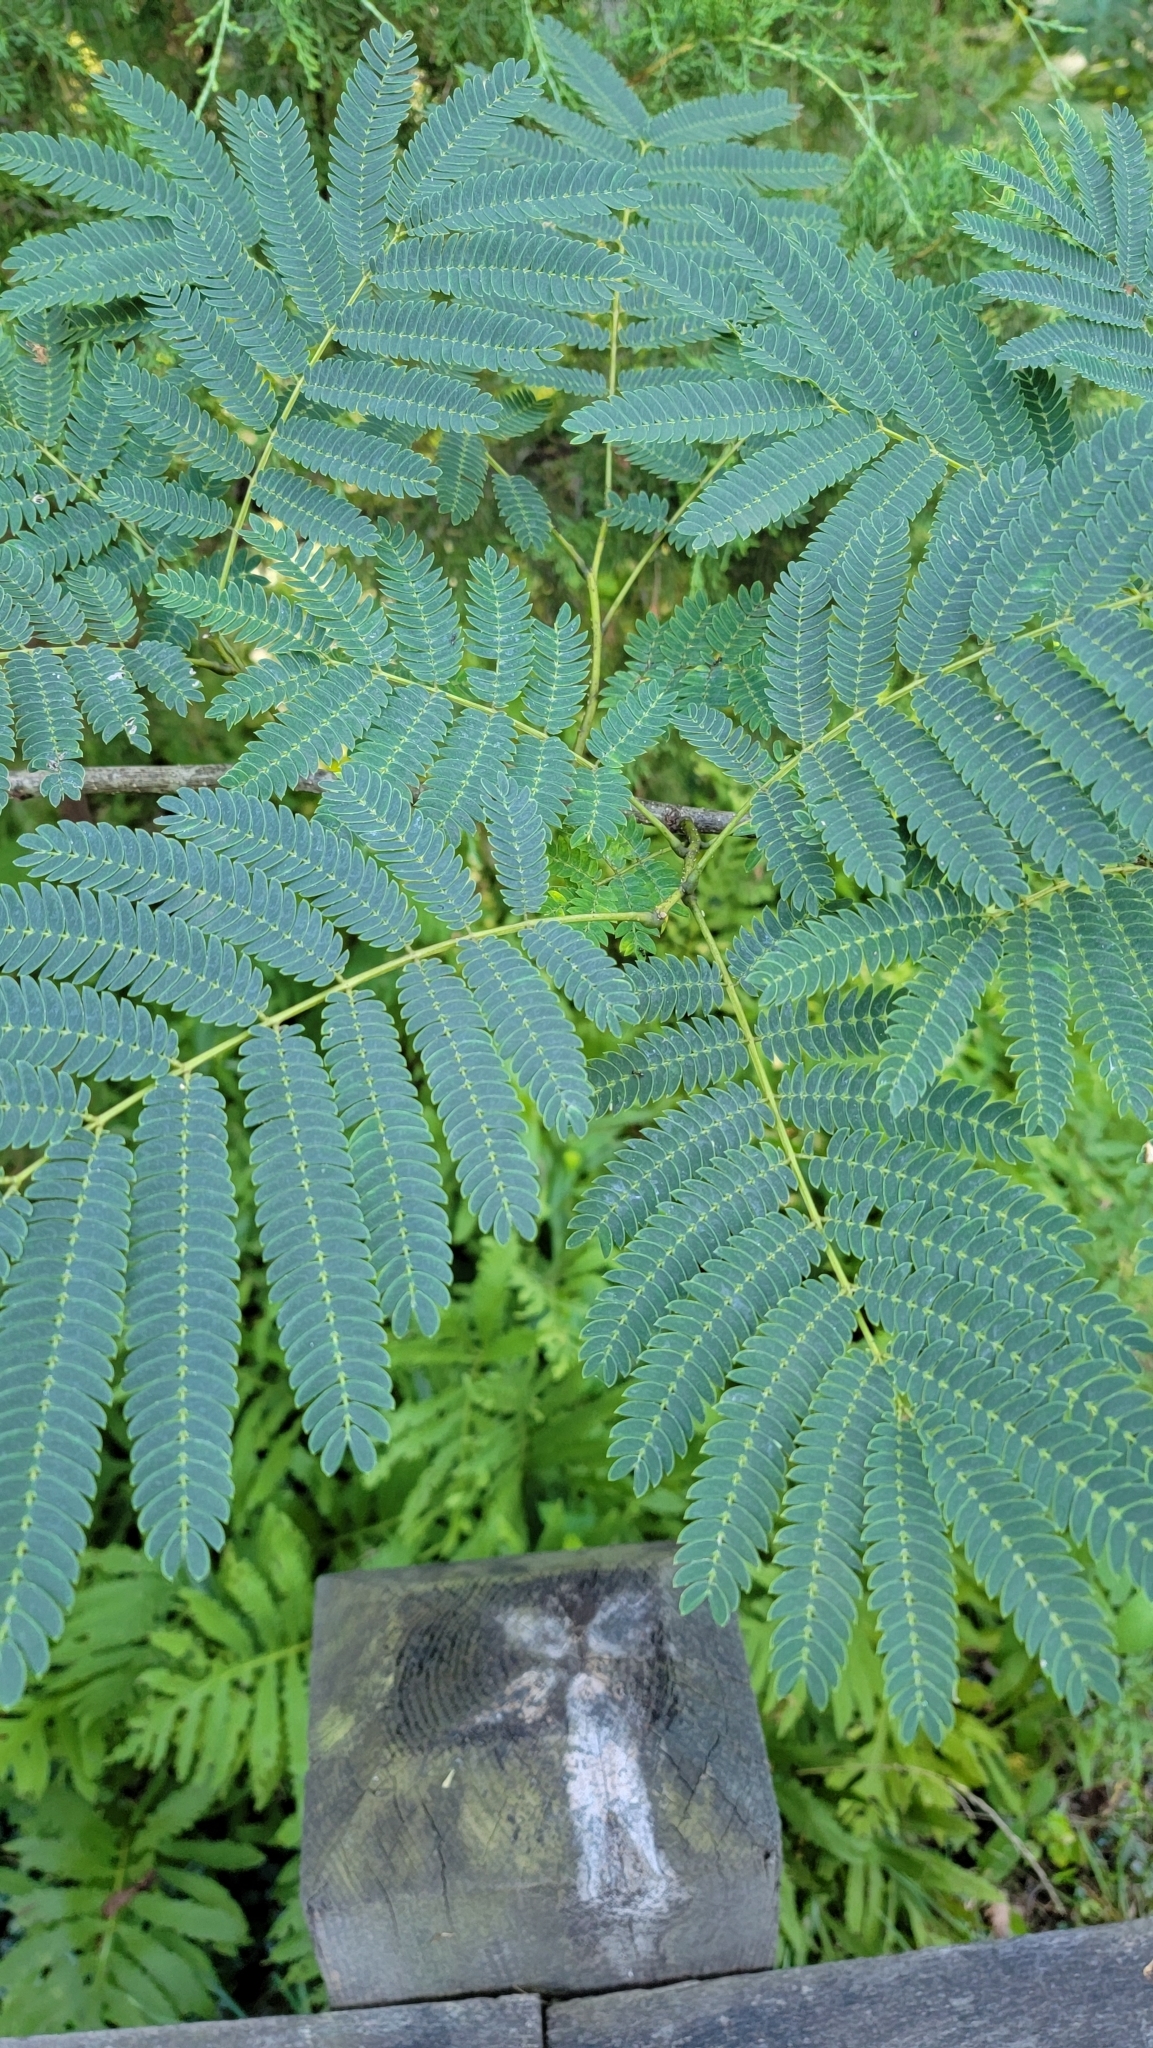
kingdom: Plantae
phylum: Tracheophyta
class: Magnoliopsida
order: Fabales
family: Fabaceae
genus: Albizia
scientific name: Albizia julibrissin
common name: Silktree
